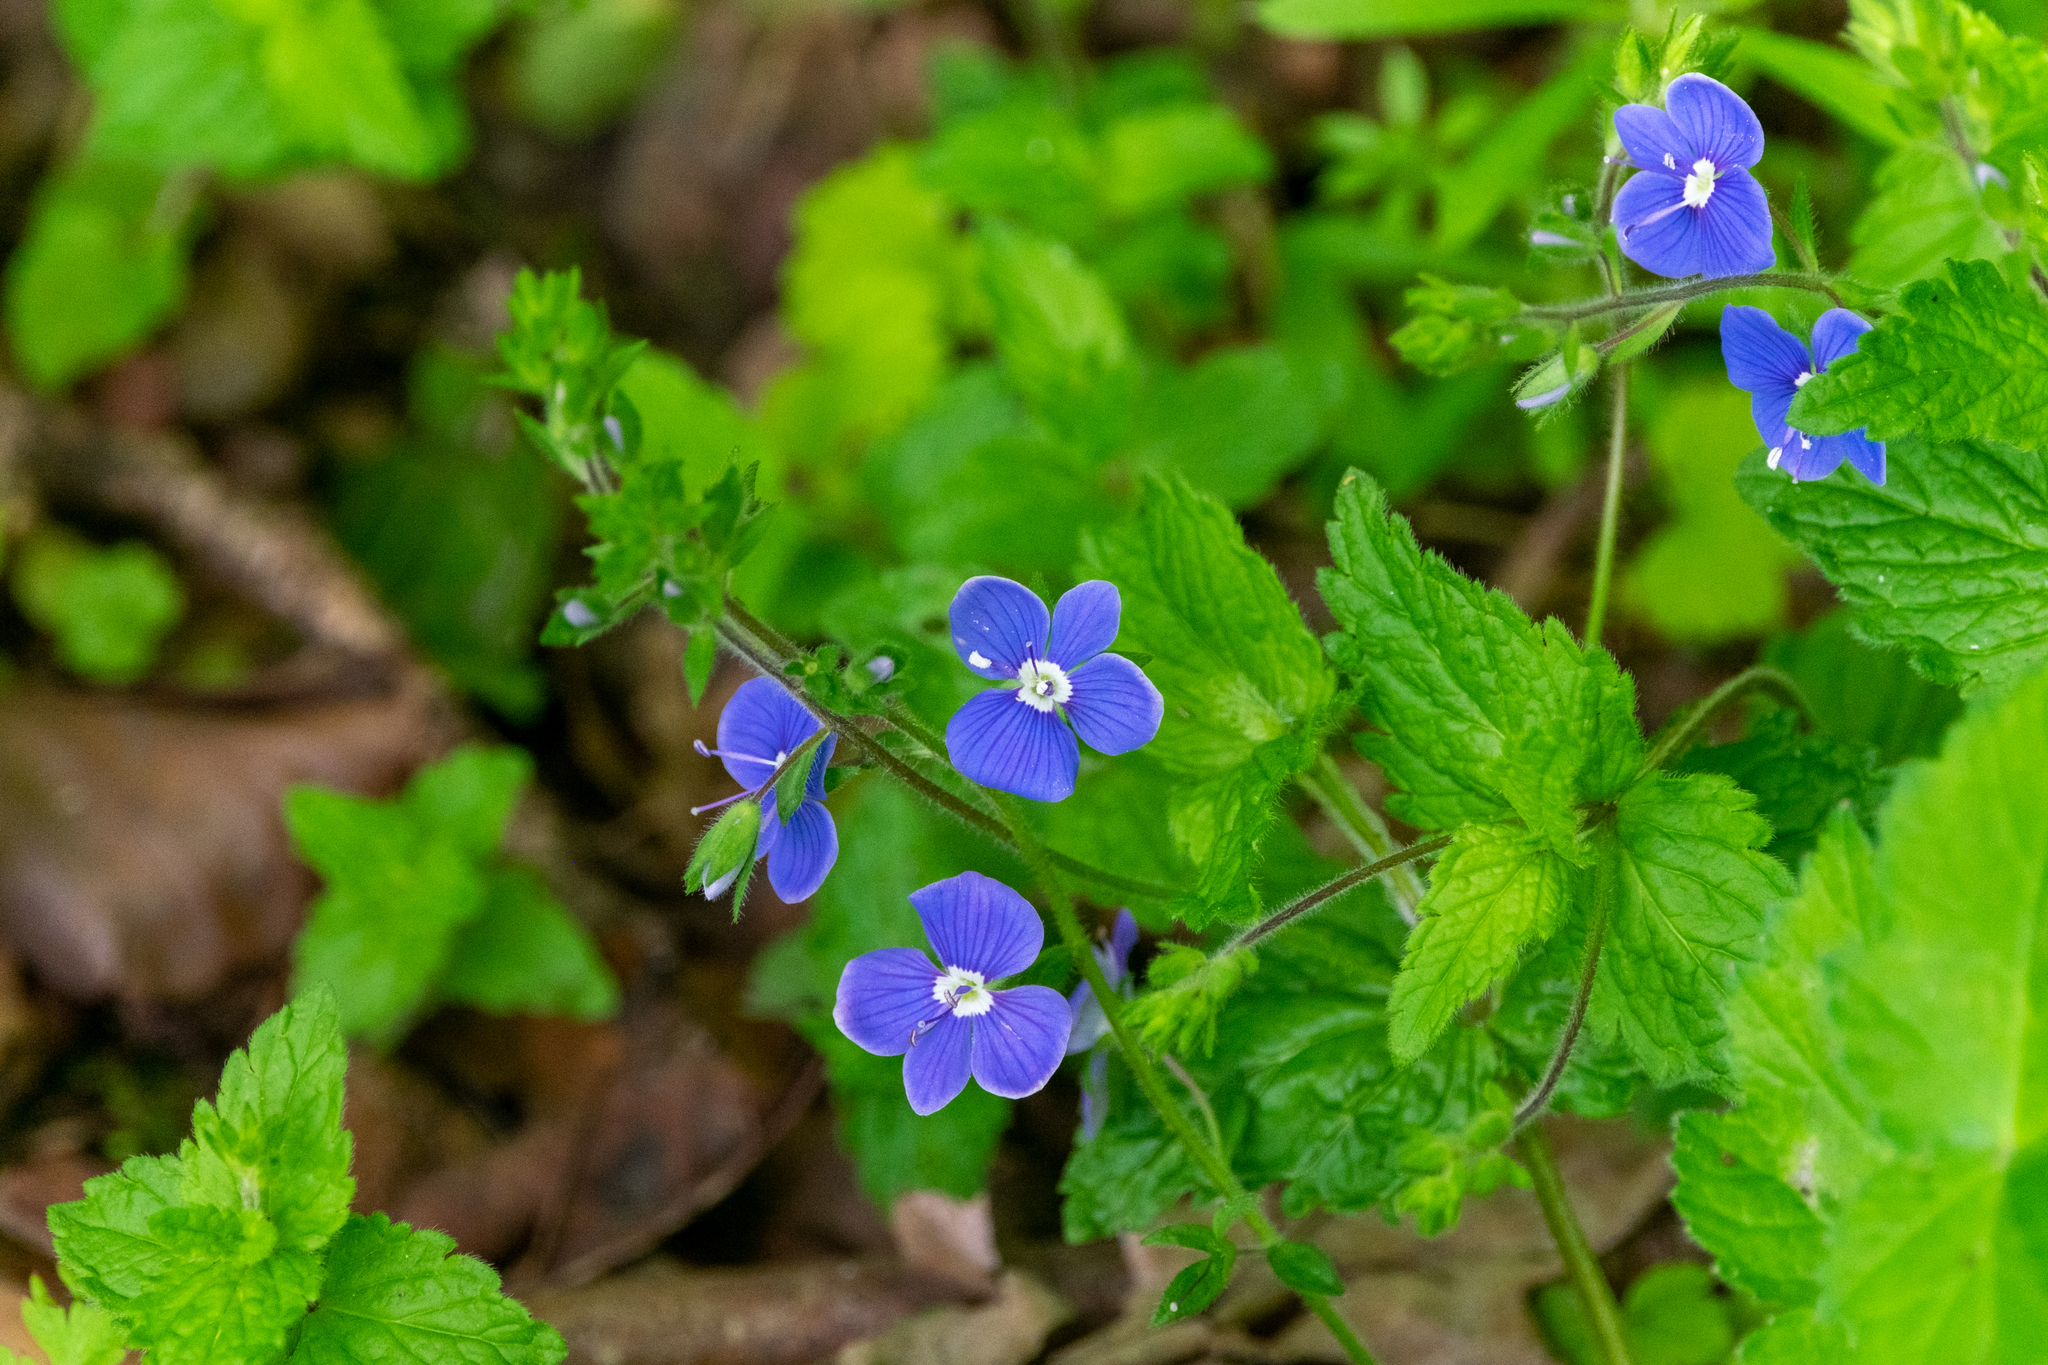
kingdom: Plantae
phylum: Tracheophyta
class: Magnoliopsida
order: Lamiales
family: Plantaginaceae
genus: Veronica
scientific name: Veronica chamaedrys
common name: Germander speedwell
